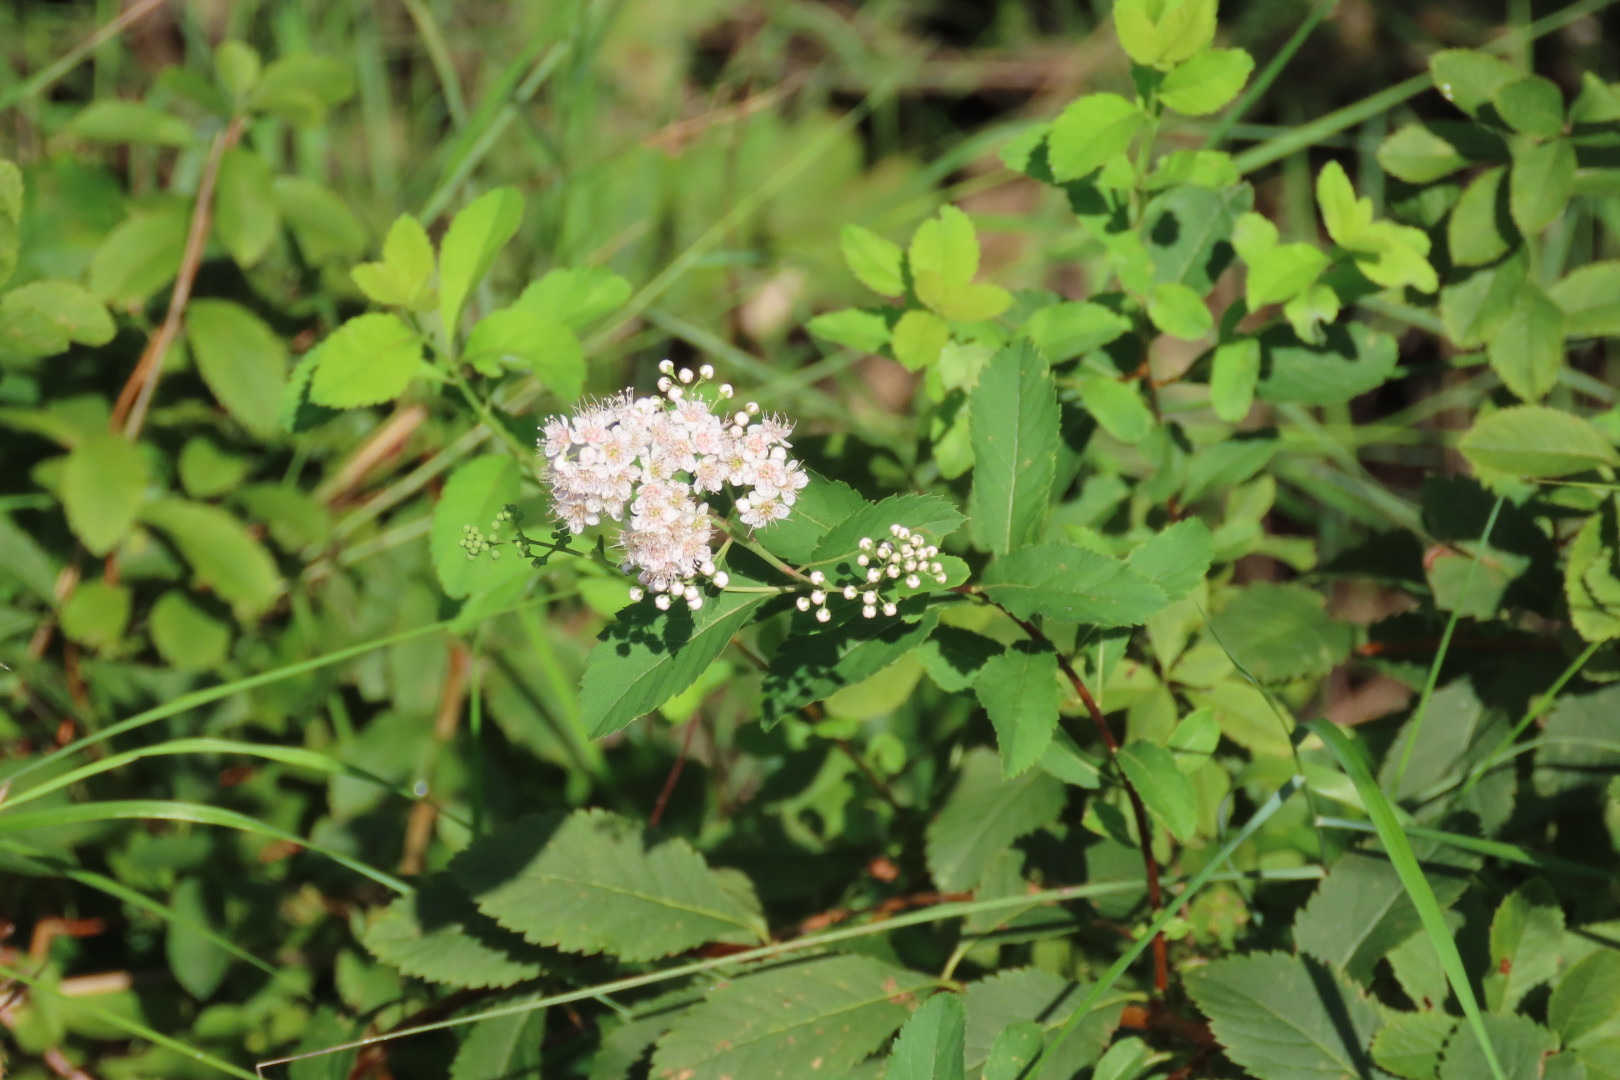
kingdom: Plantae
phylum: Tracheophyta
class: Magnoliopsida
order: Rosales
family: Rosaceae
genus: Spiraea
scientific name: Spiraea alba
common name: Pale bridewort
